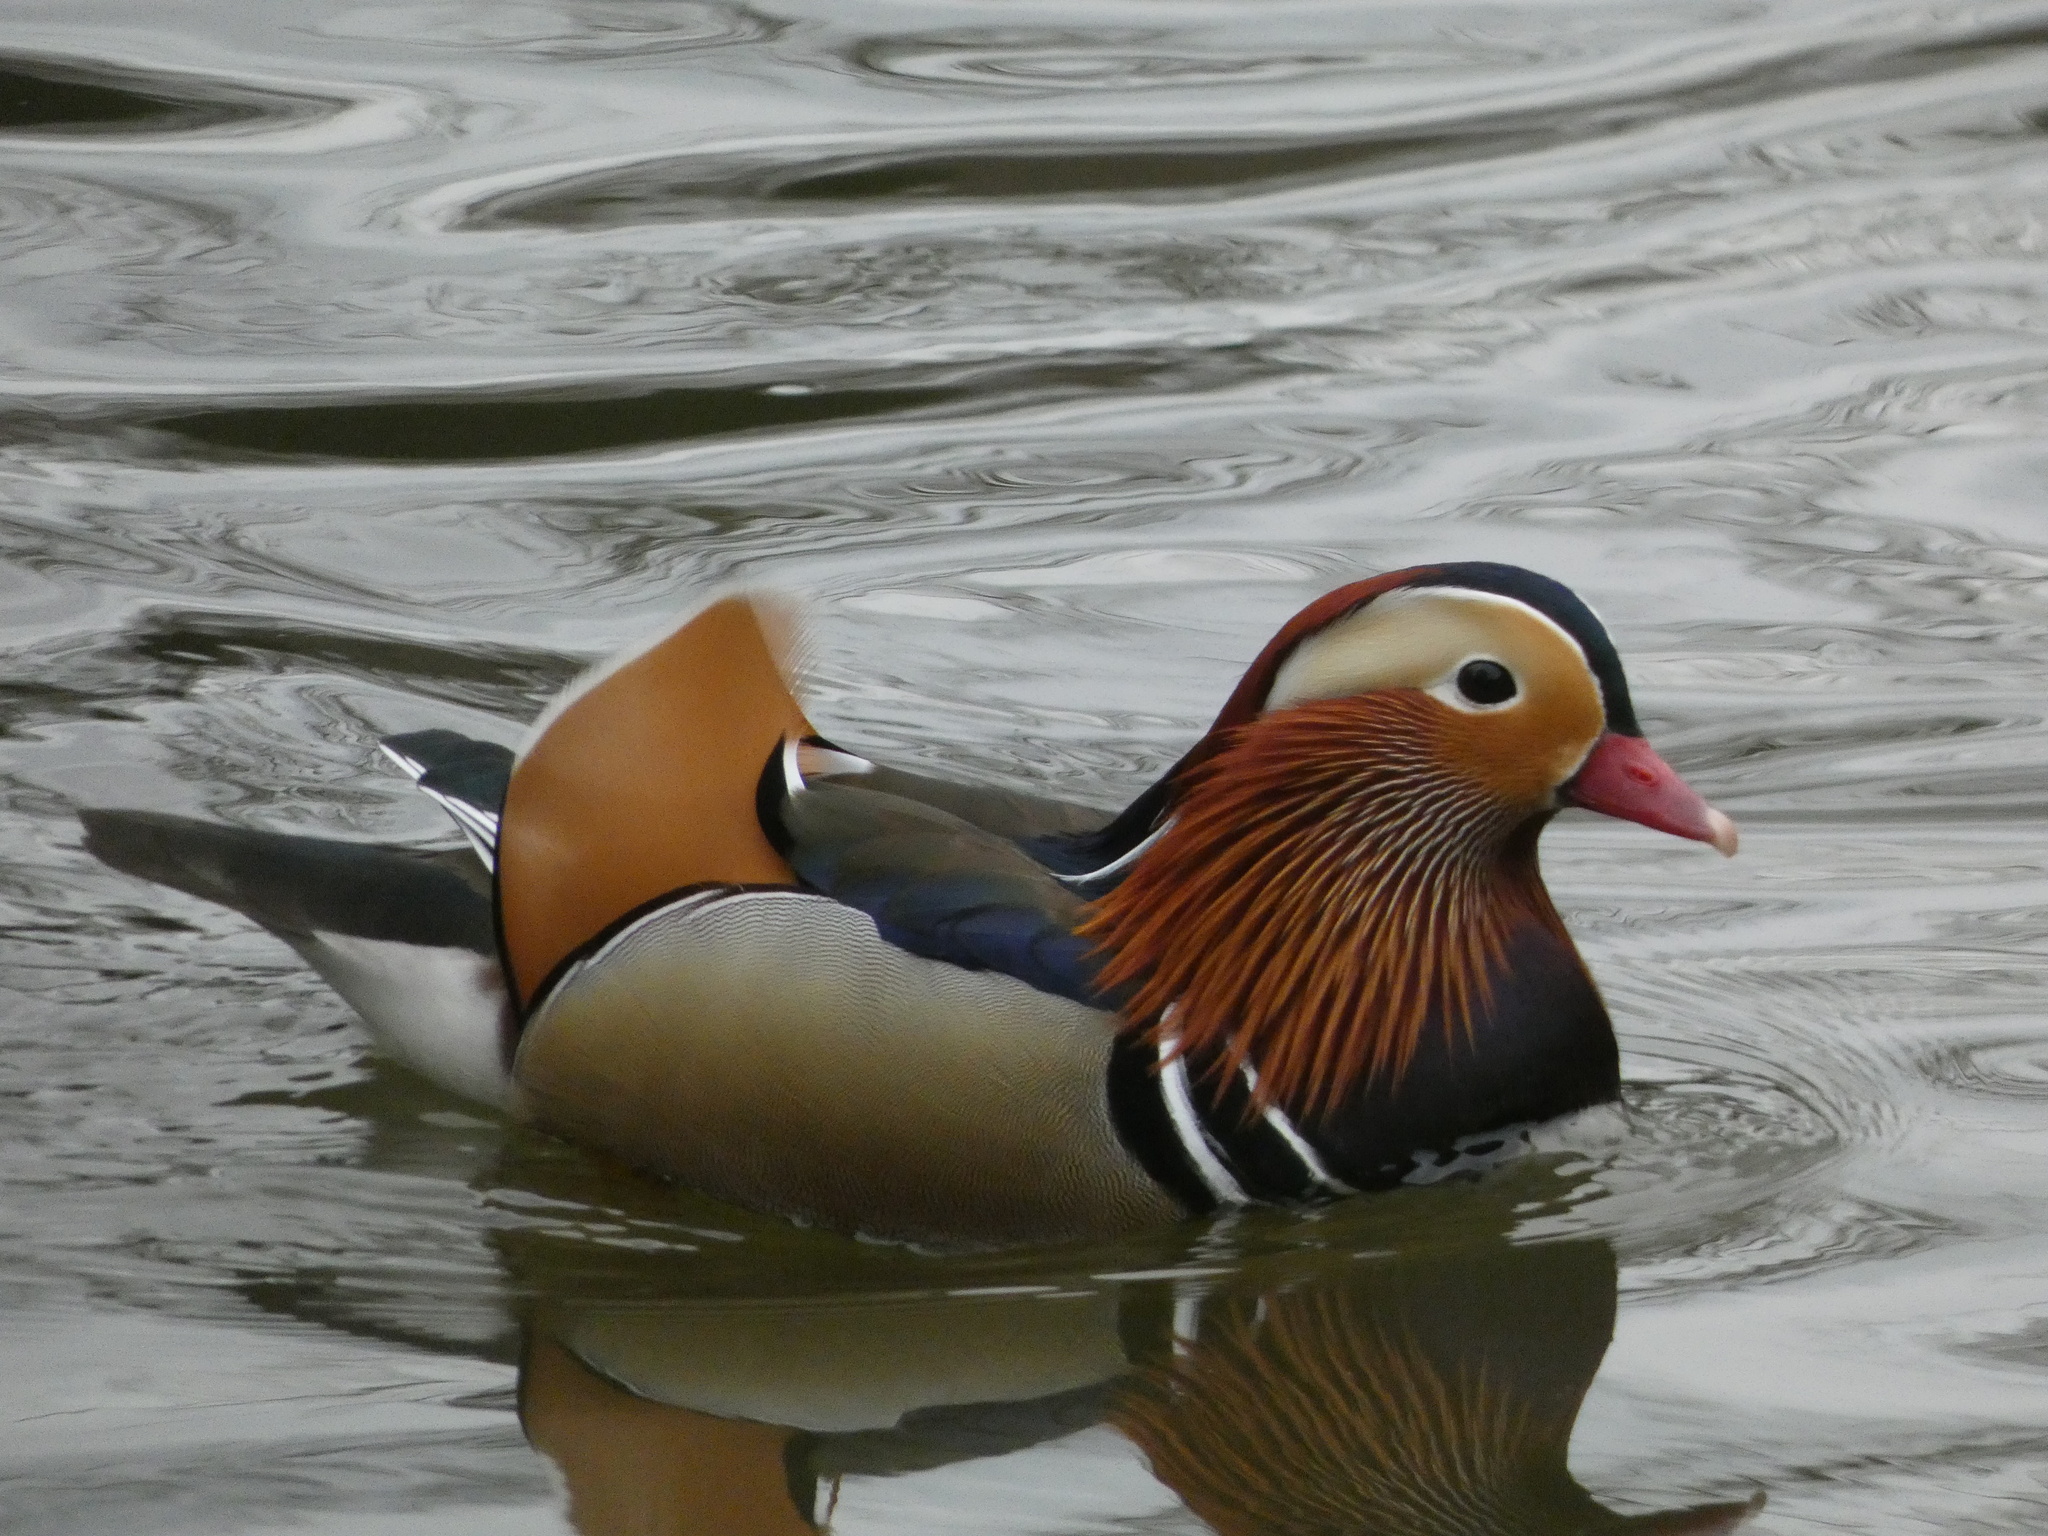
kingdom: Animalia
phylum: Chordata
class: Aves
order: Anseriformes
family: Anatidae
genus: Aix
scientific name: Aix galericulata
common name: Mandarin duck
